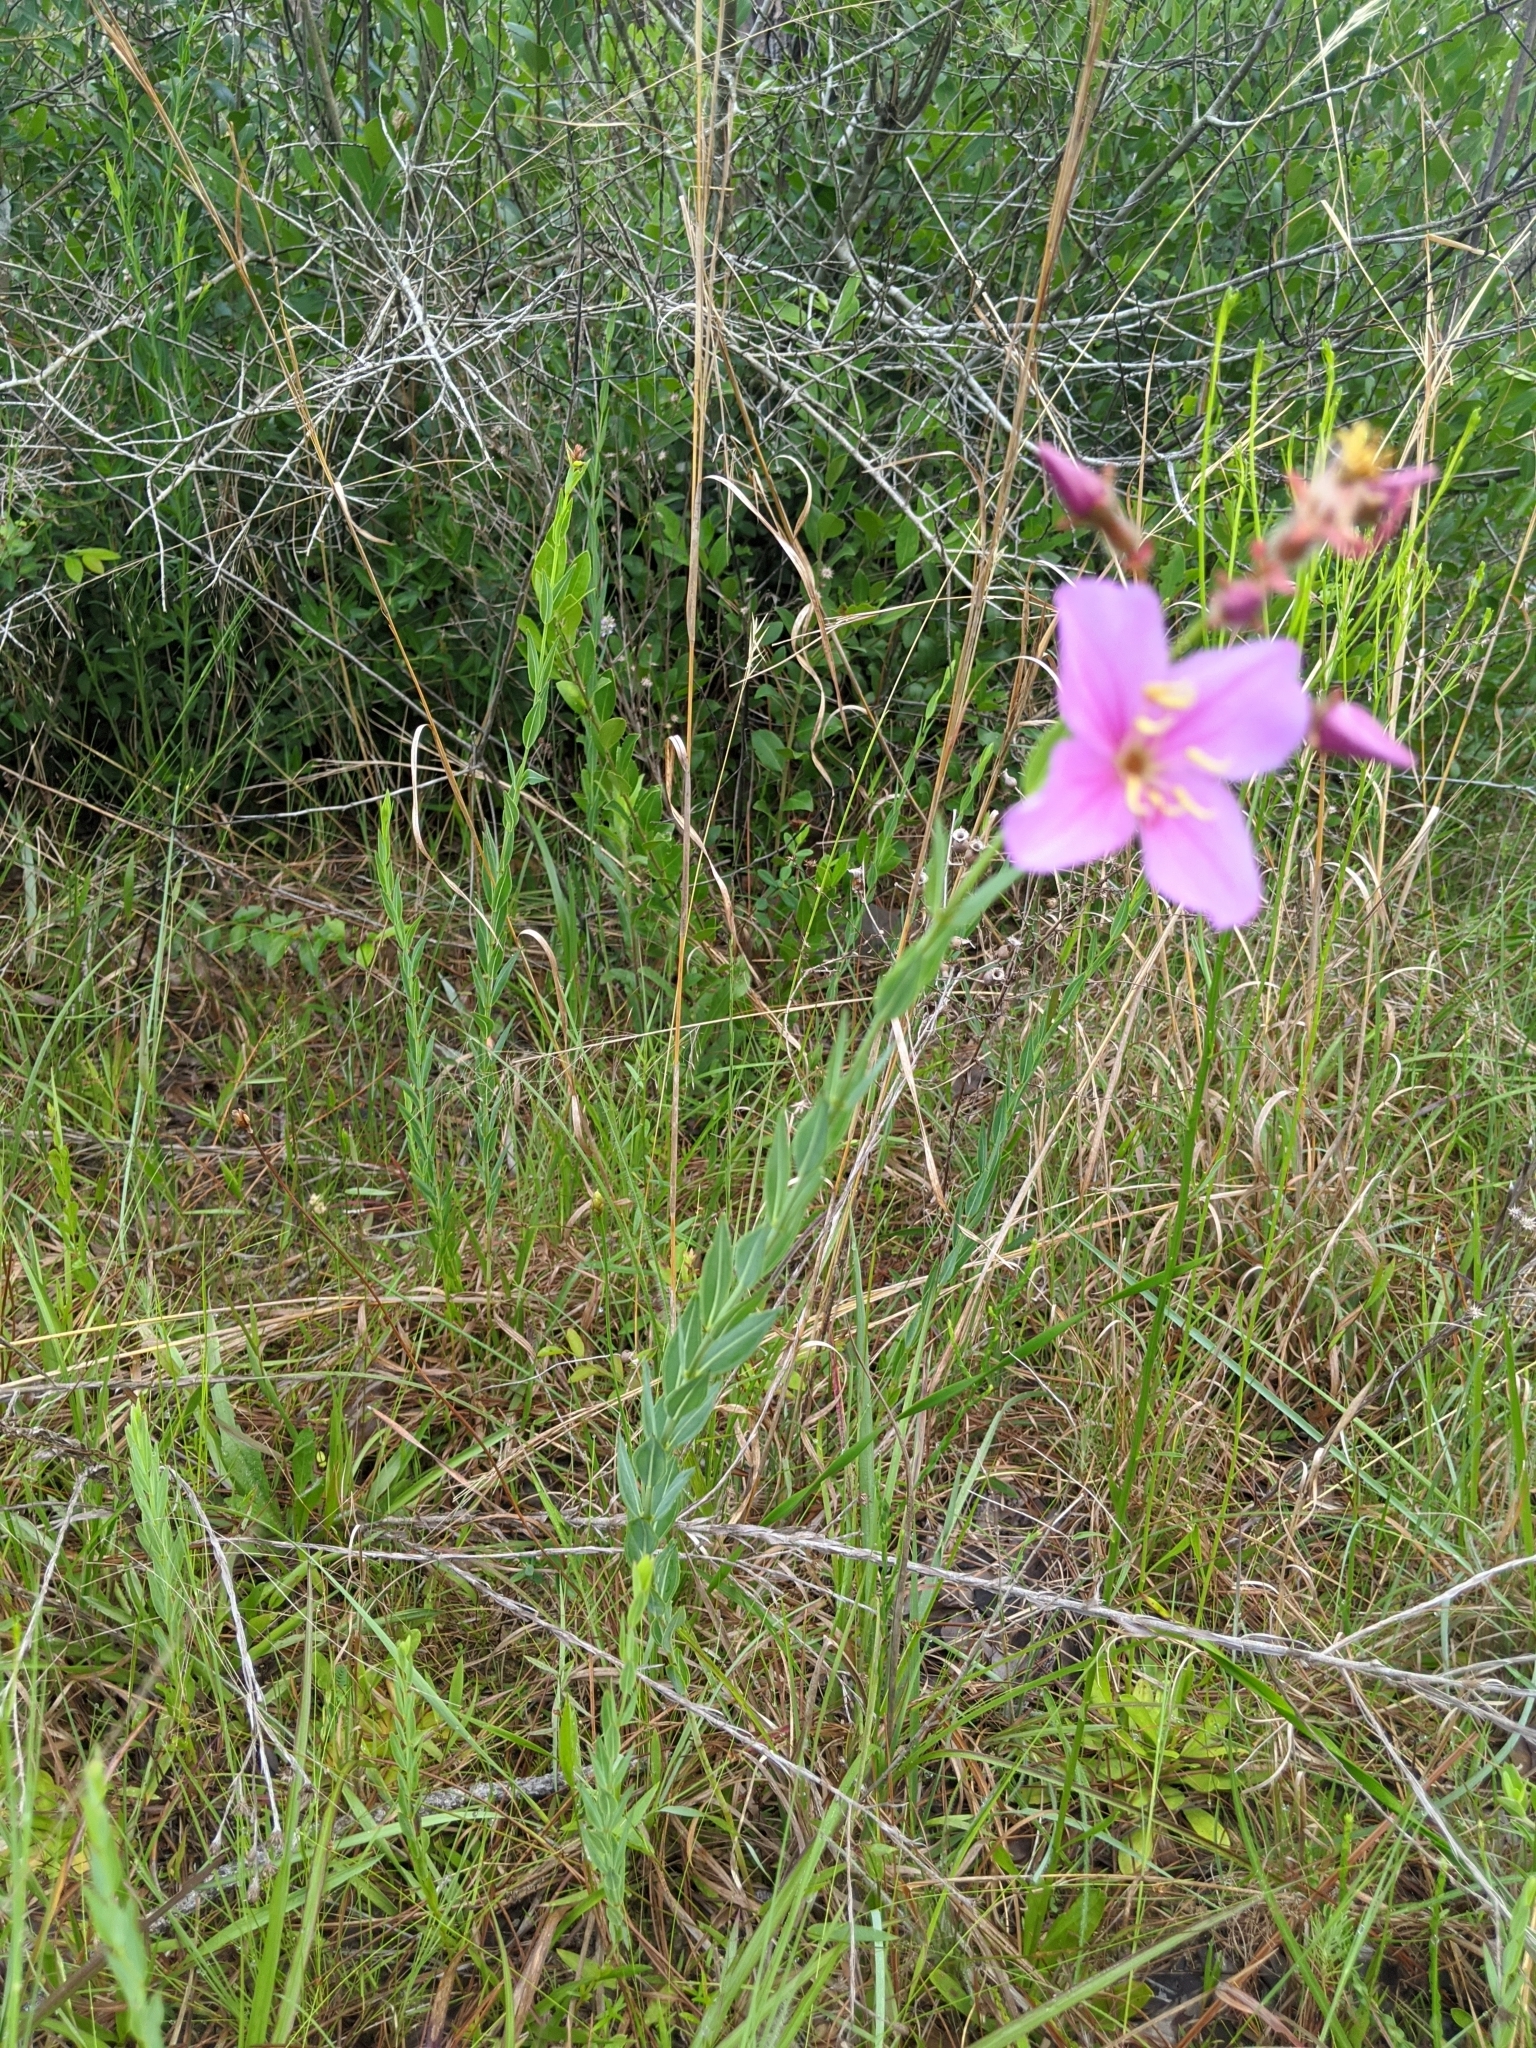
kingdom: Plantae
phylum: Tracheophyta
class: Magnoliopsida
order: Myrtales
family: Melastomataceae
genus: Rhexia
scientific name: Rhexia alifanus
